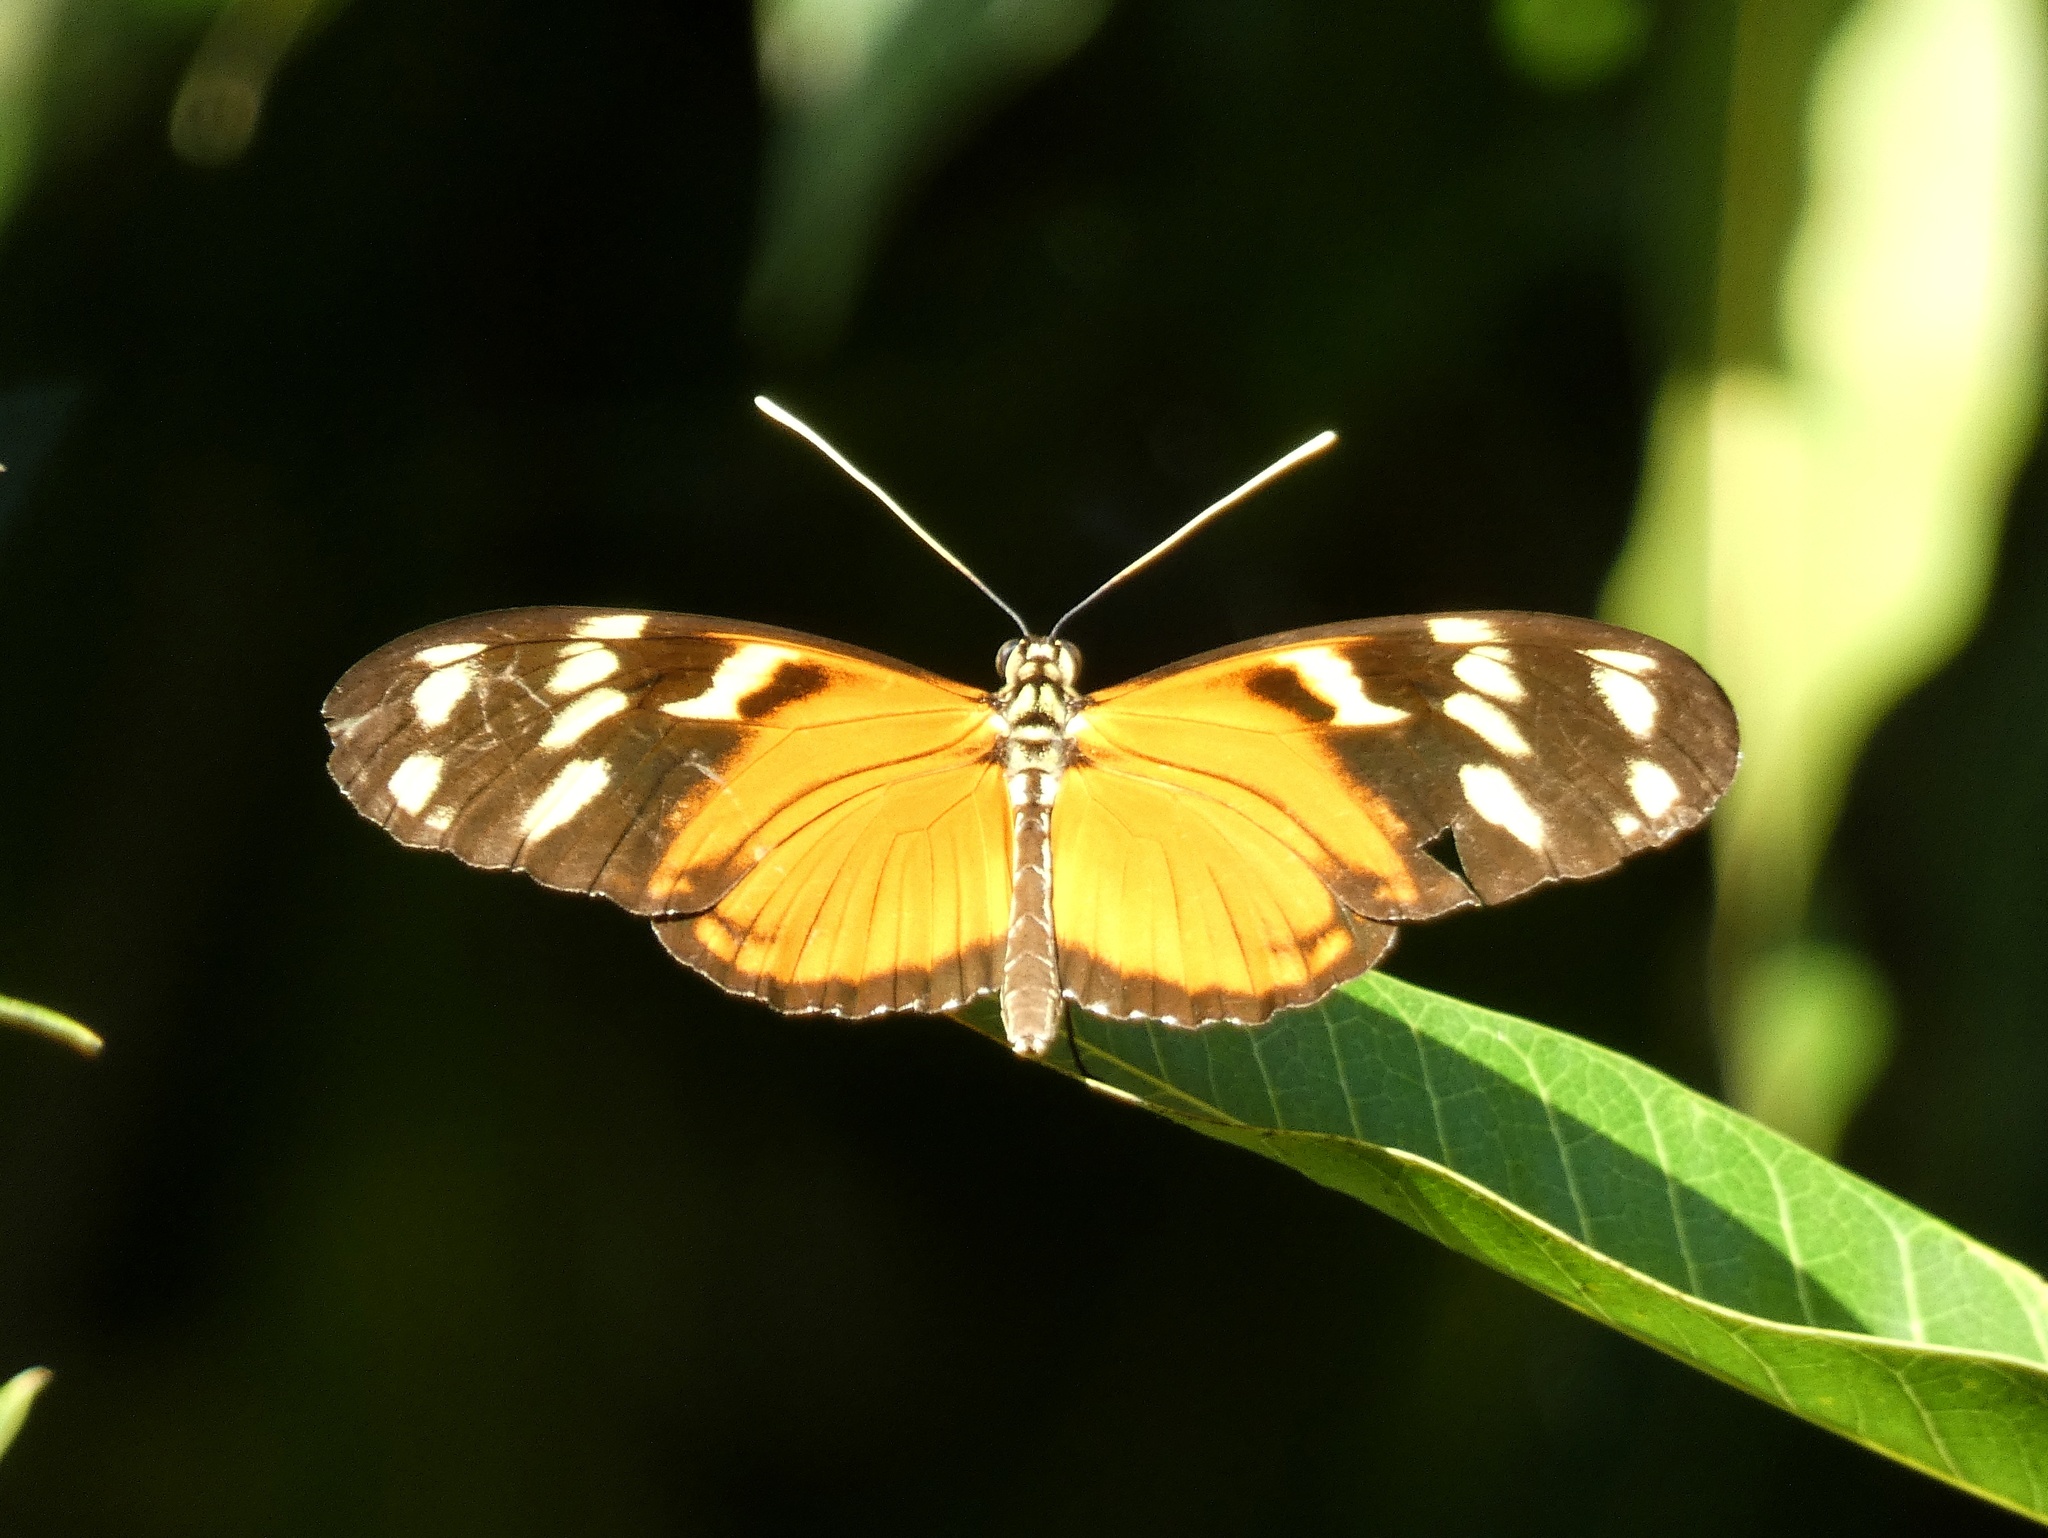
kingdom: Animalia
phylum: Arthropoda
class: Insecta
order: Lepidoptera
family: Nymphalidae
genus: Heliconius
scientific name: Heliconius ismenius
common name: Ismenius tiger
